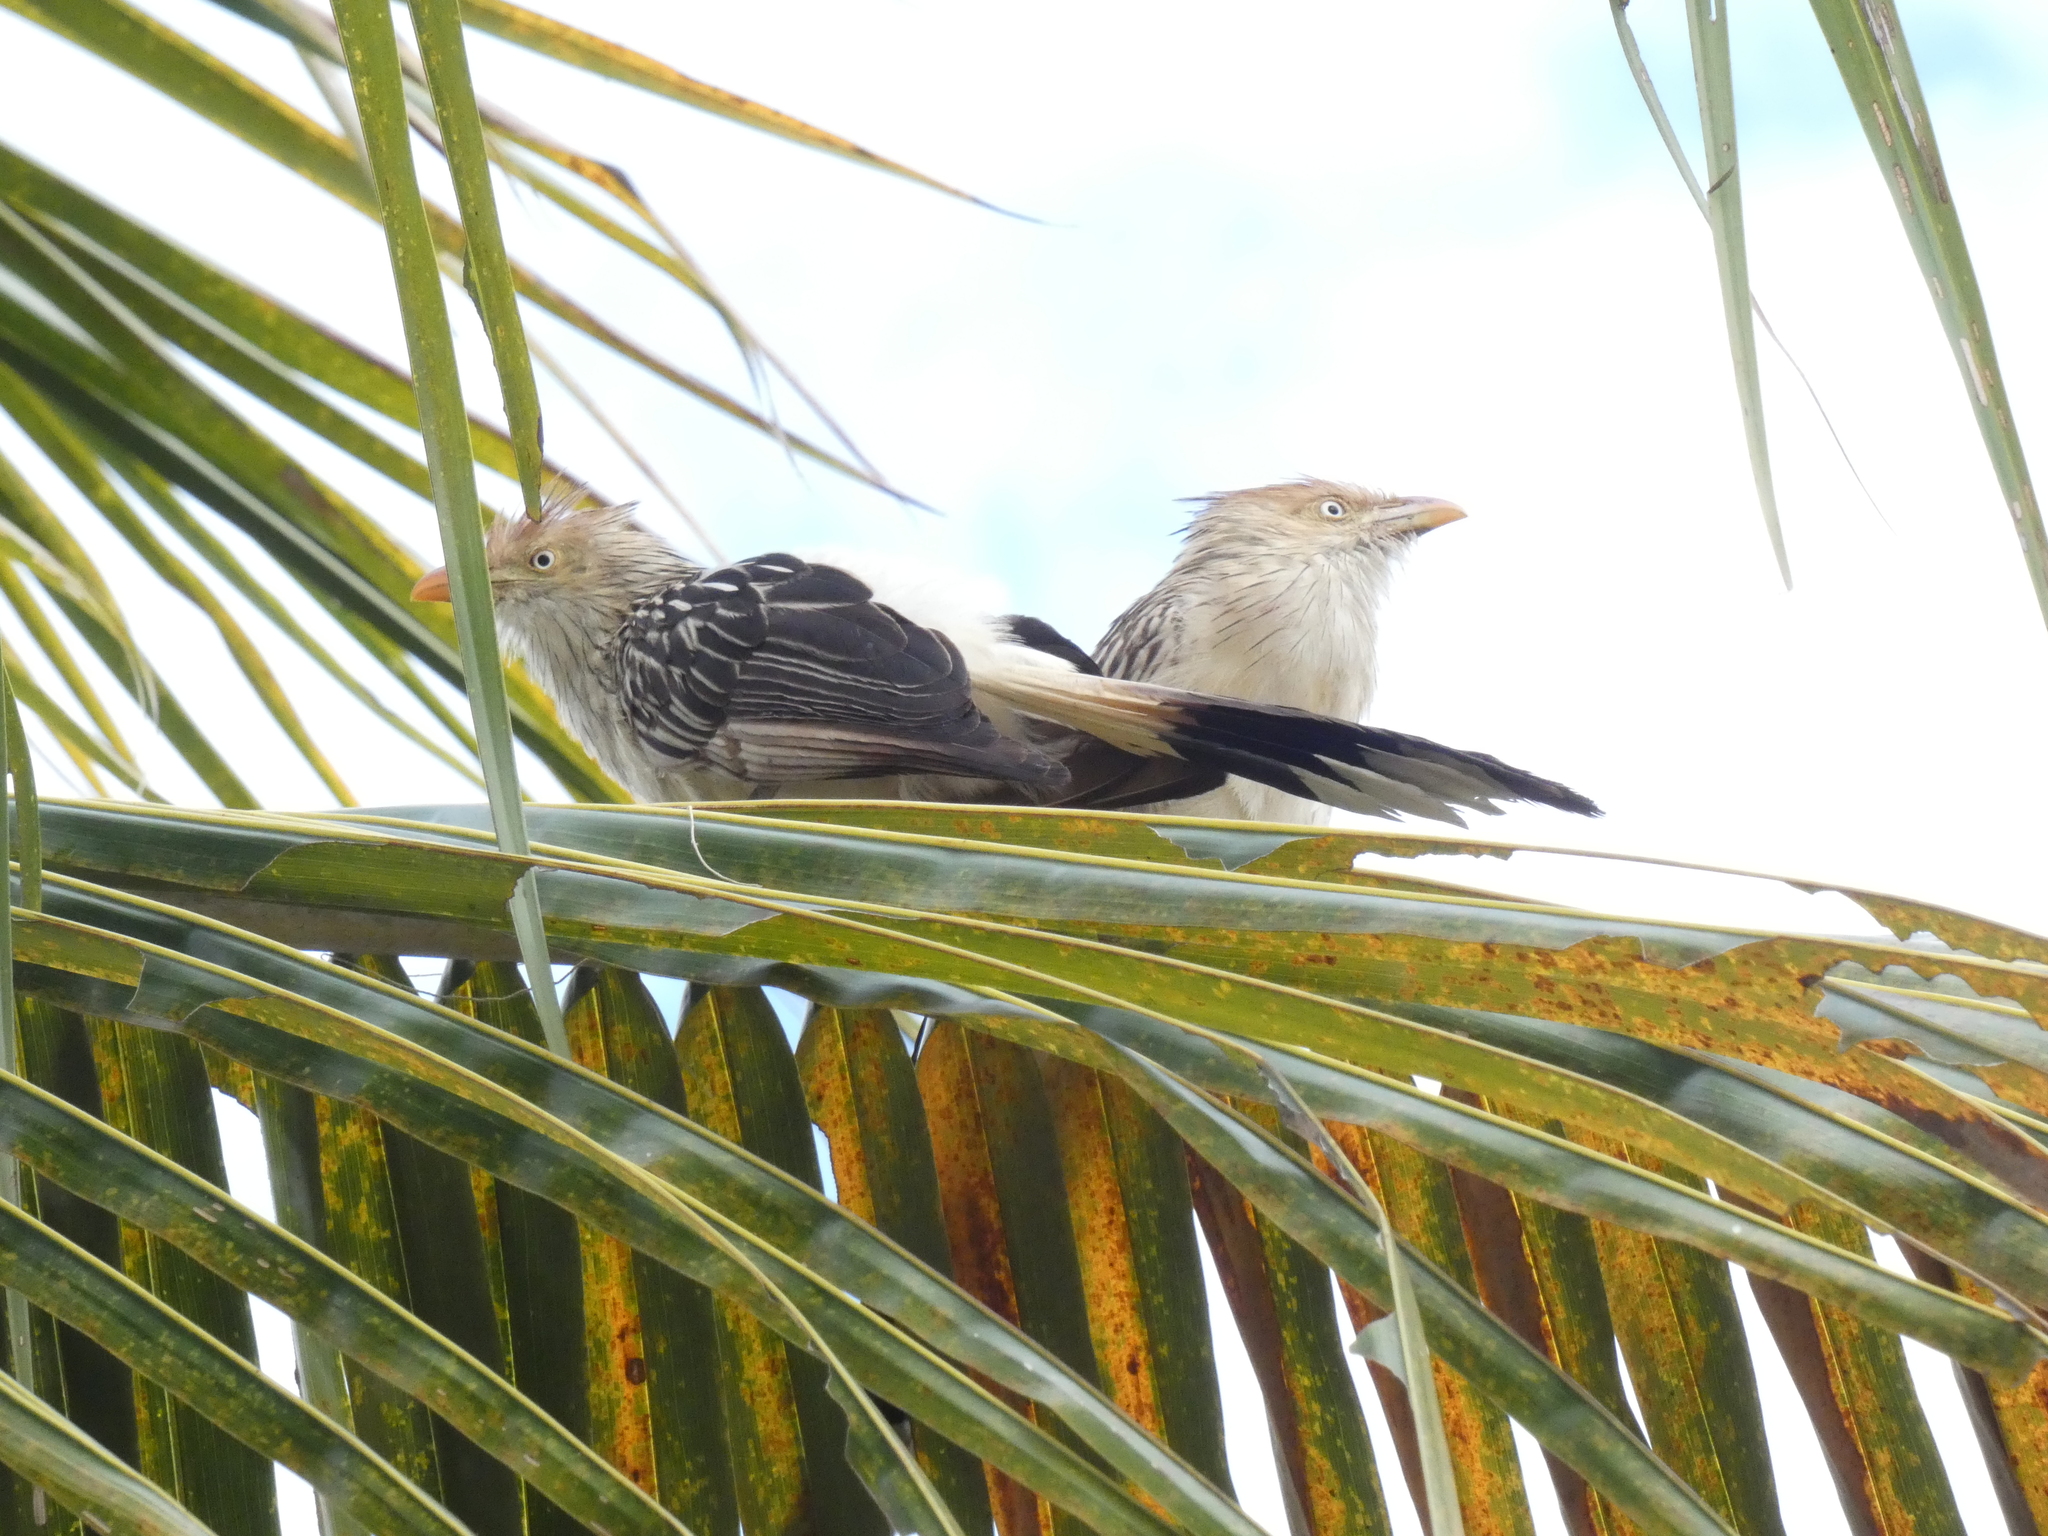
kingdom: Animalia
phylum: Chordata
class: Aves
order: Cuculiformes
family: Cuculidae
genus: Guira
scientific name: Guira guira
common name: Guira cuckoo
